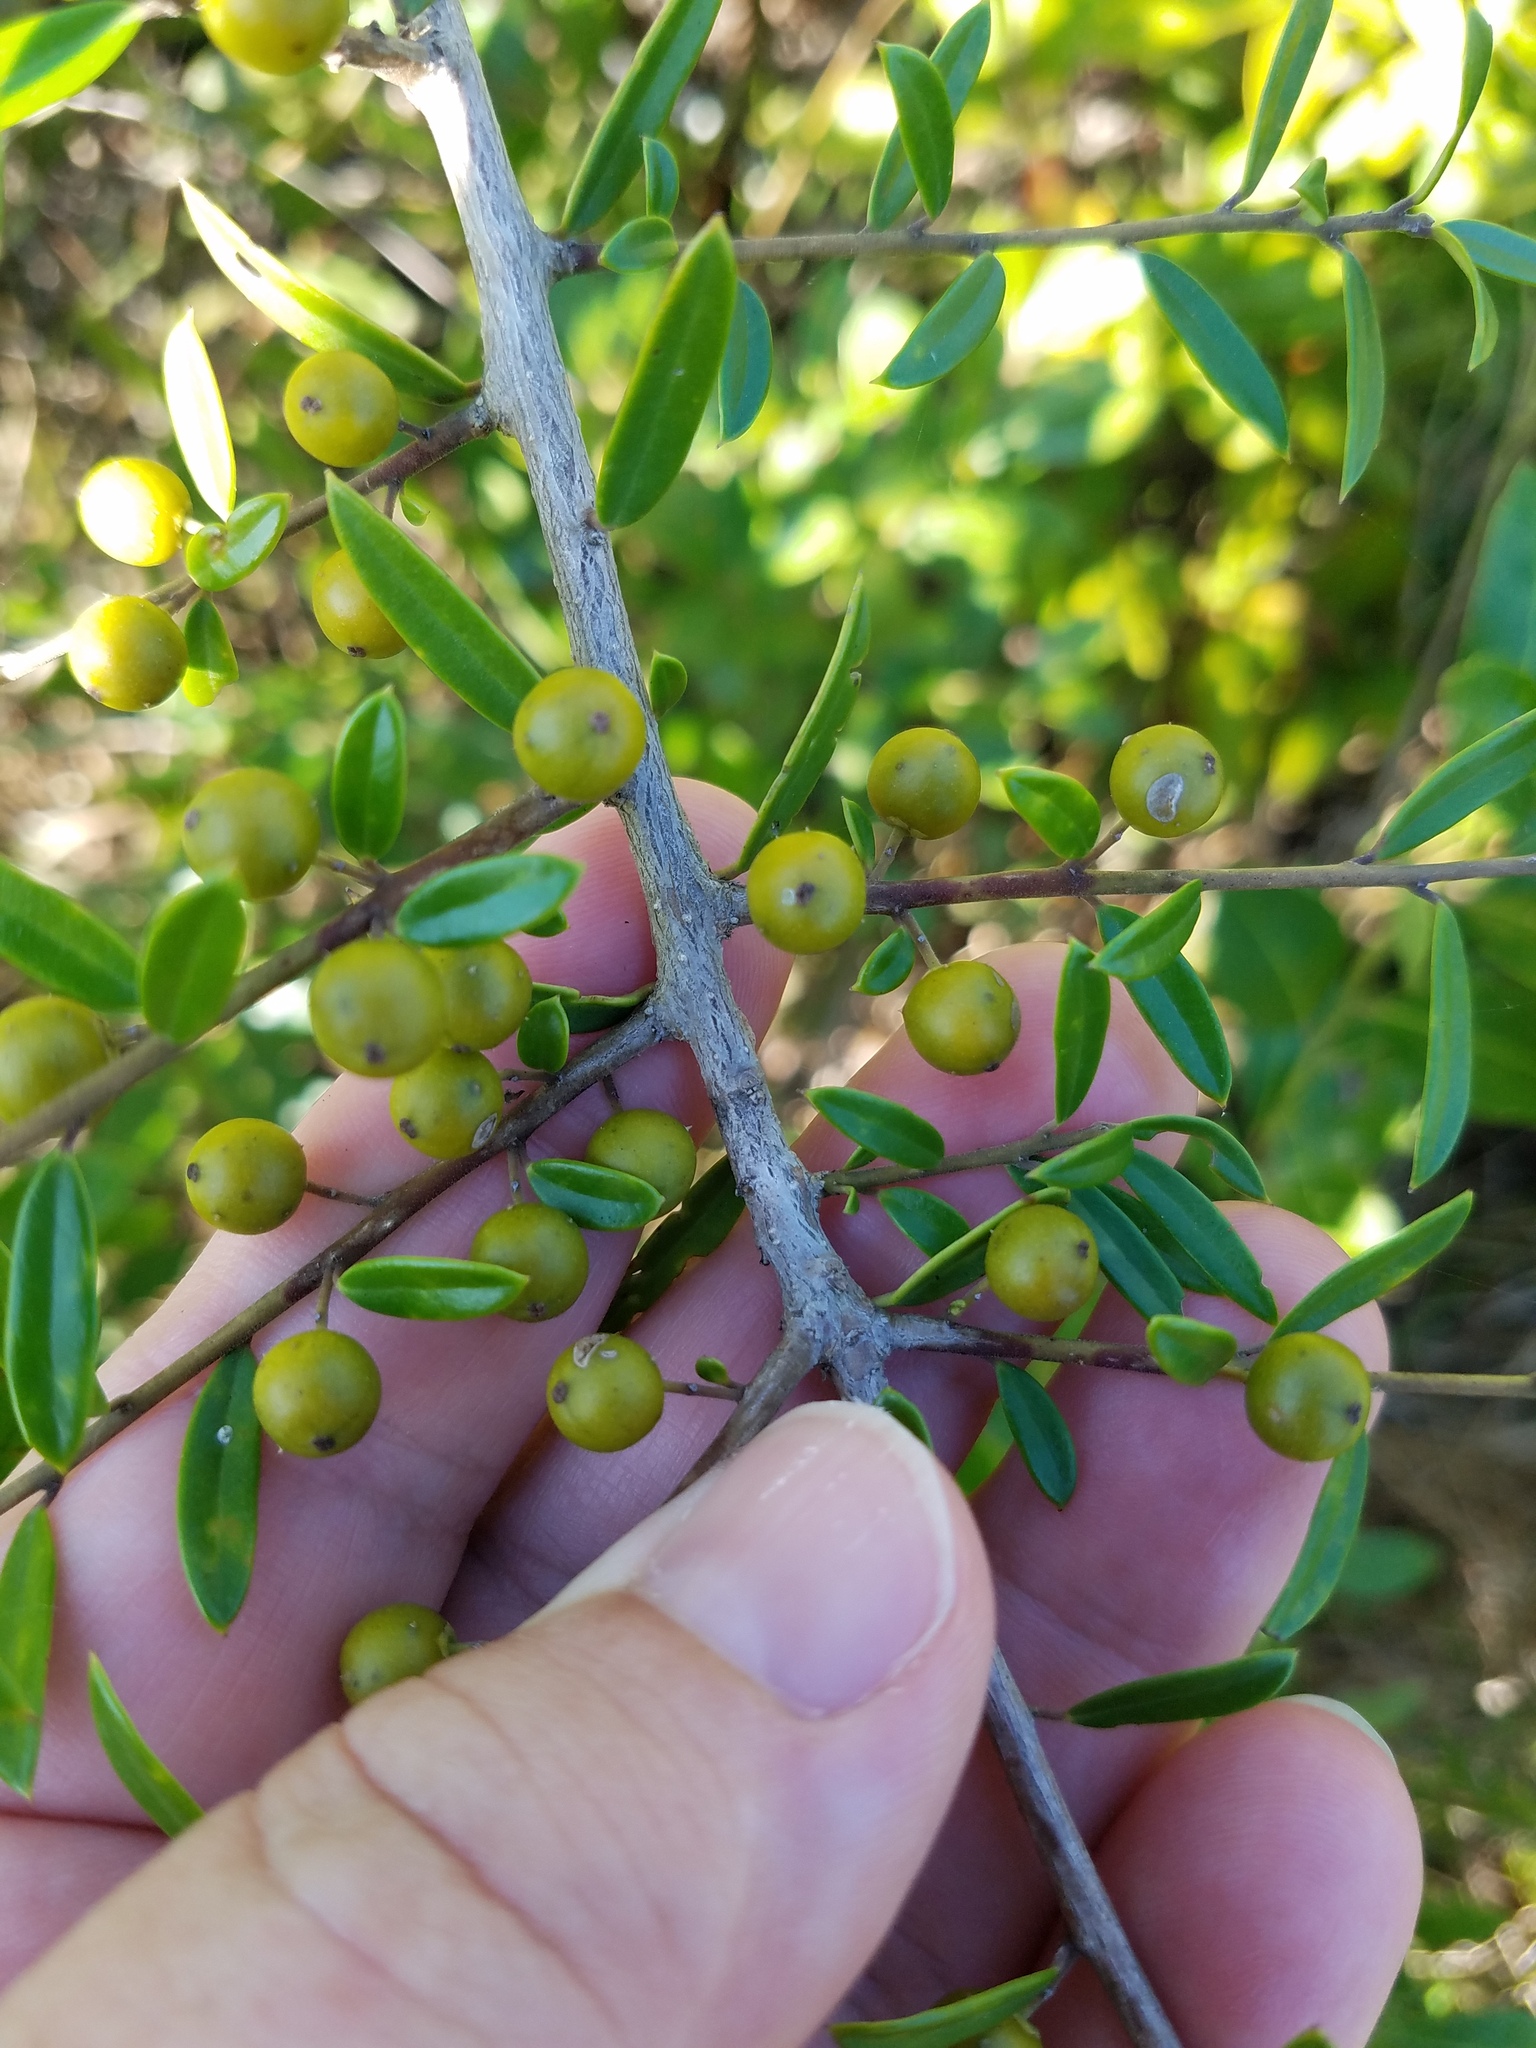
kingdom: Plantae
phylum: Tracheophyta
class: Magnoliopsida
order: Aquifoliales
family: Aquifoliaceae
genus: Ilex
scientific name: Ilex myrtifolia
